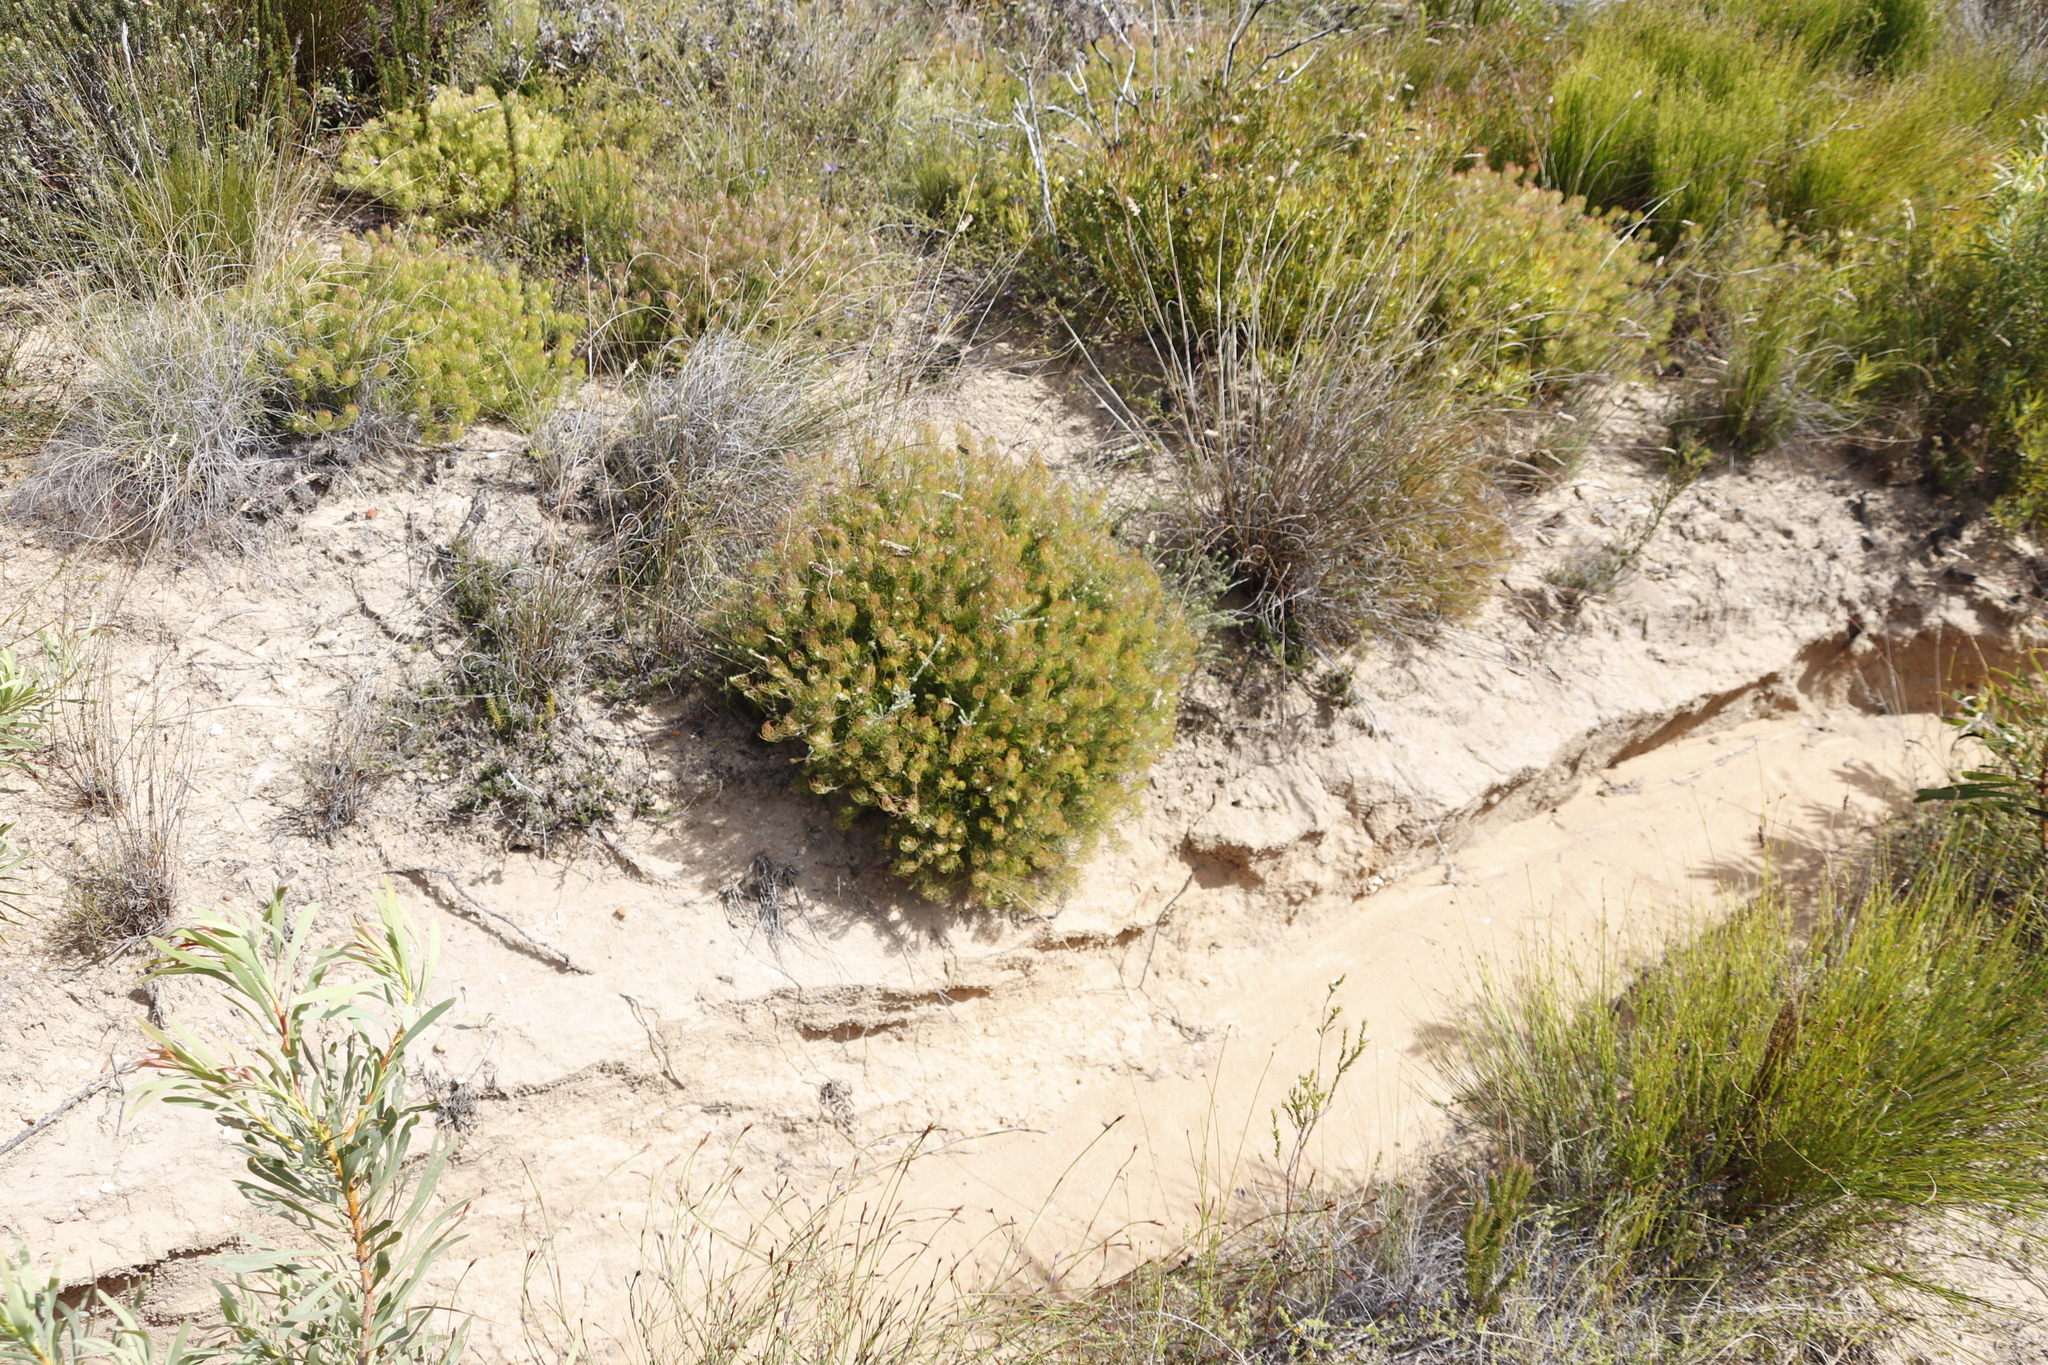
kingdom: Plantae
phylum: Tracheophyta
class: Magnoliopsida
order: Proteales
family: Proteaceae
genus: Serruria
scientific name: Serruria inconspicua
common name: Cryptic spiderhead
